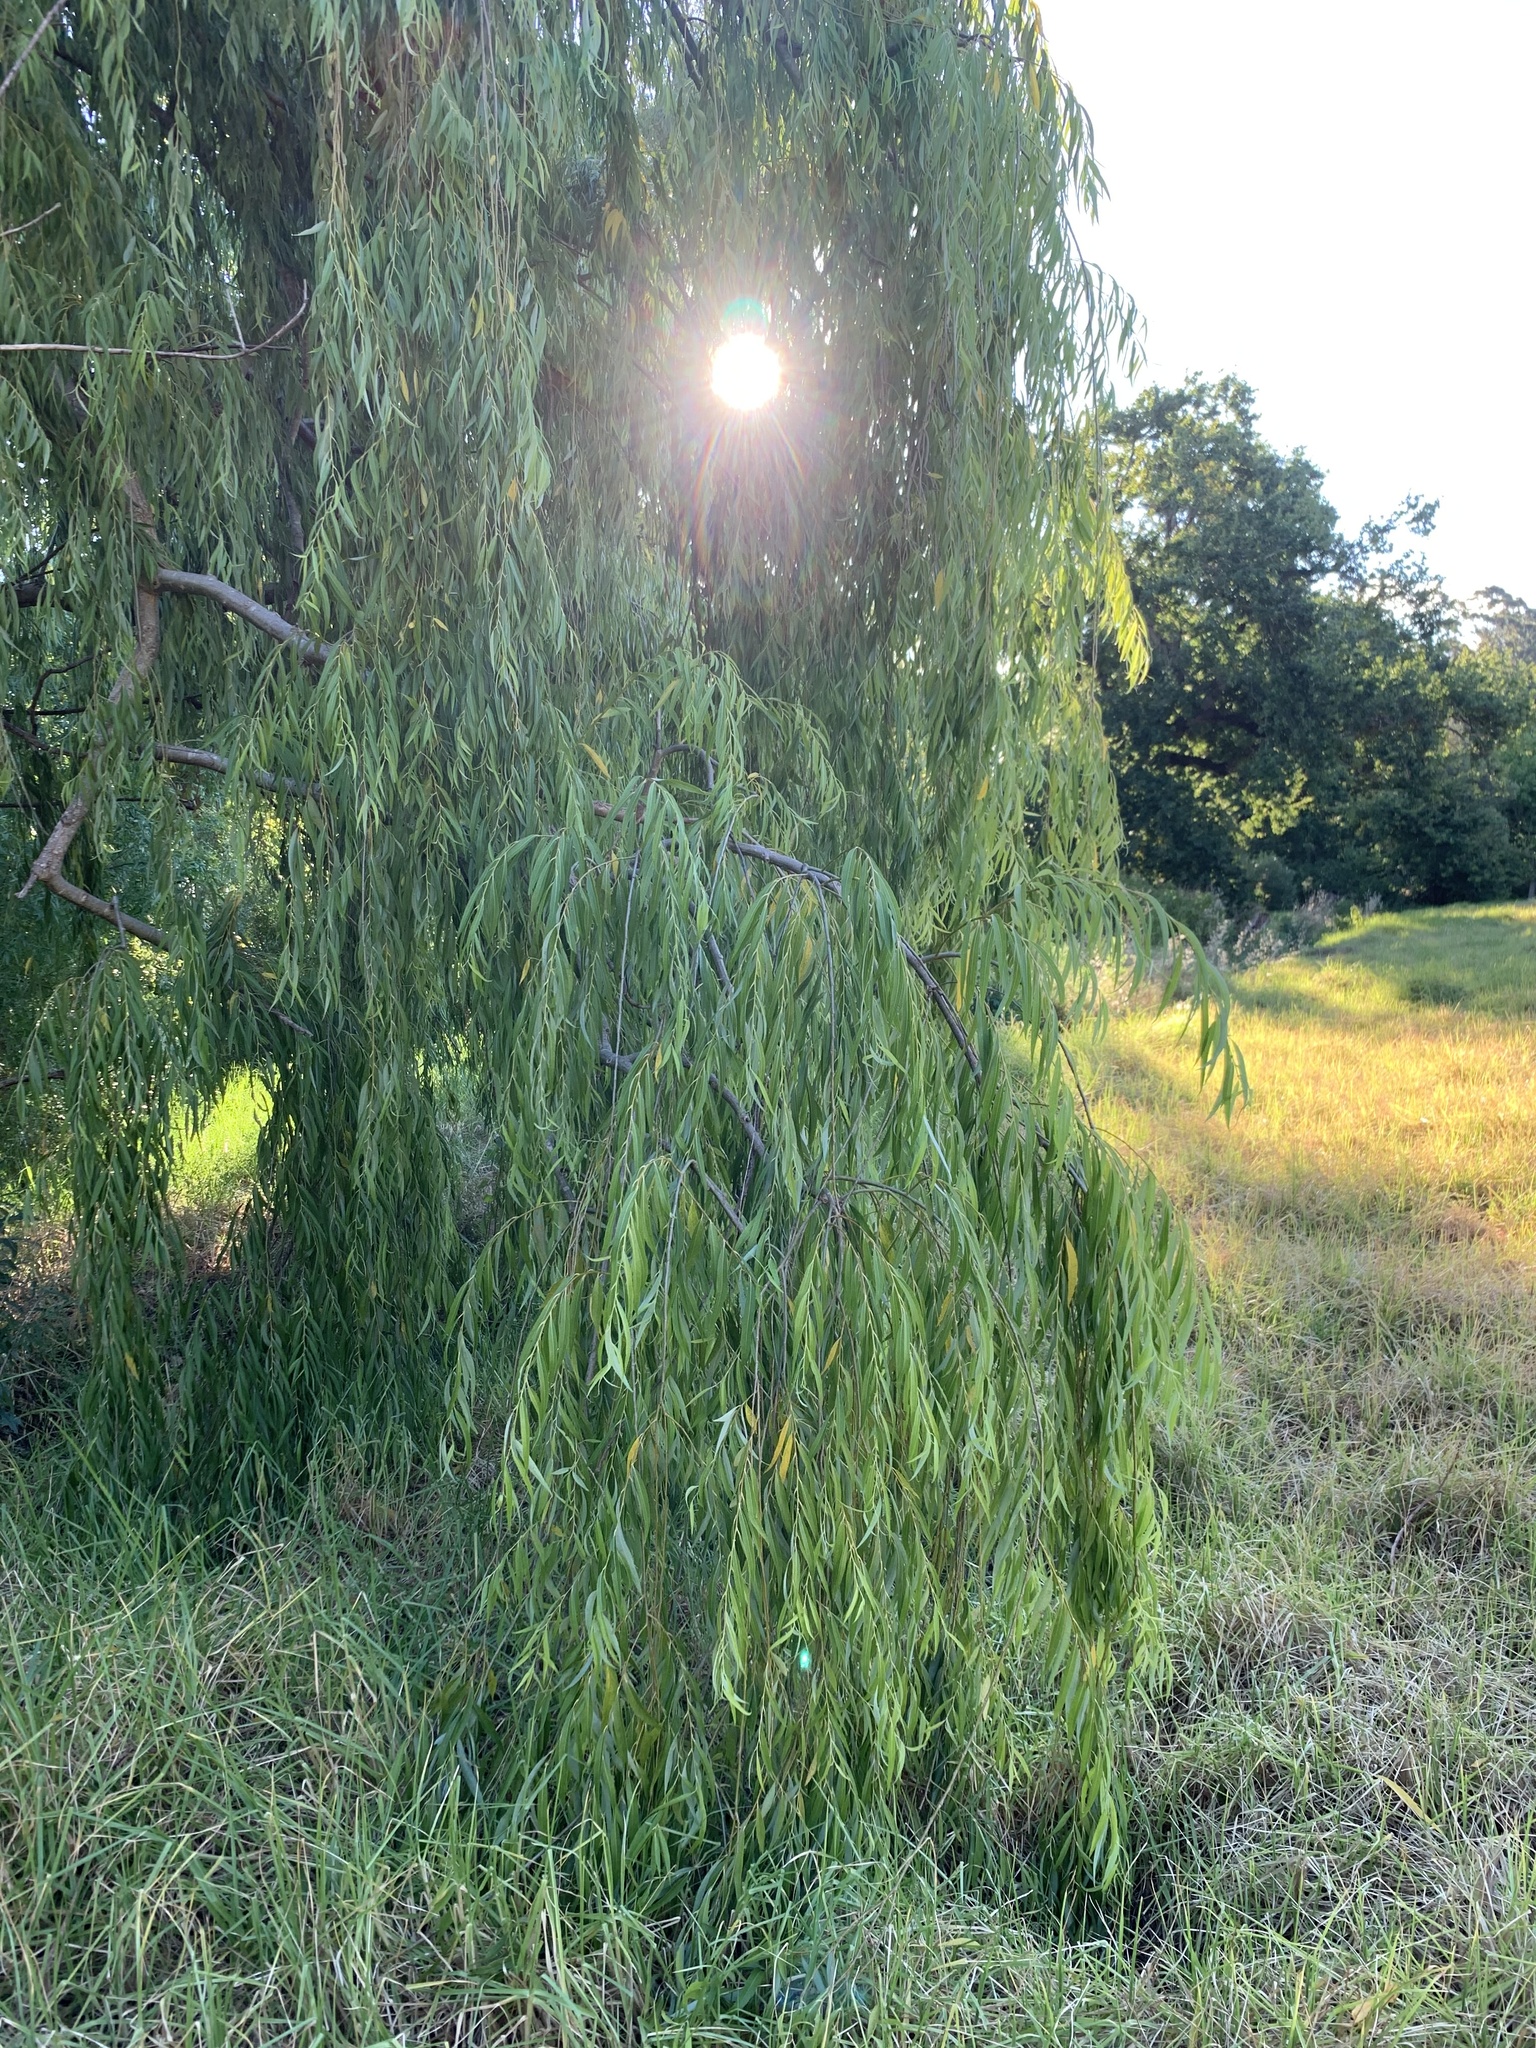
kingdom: Plantae
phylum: Tracheophyta
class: Magnoliopsida
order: Malpighiales
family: Salicaceae
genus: Salix
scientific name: Salix babylonica
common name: Weeping willow
